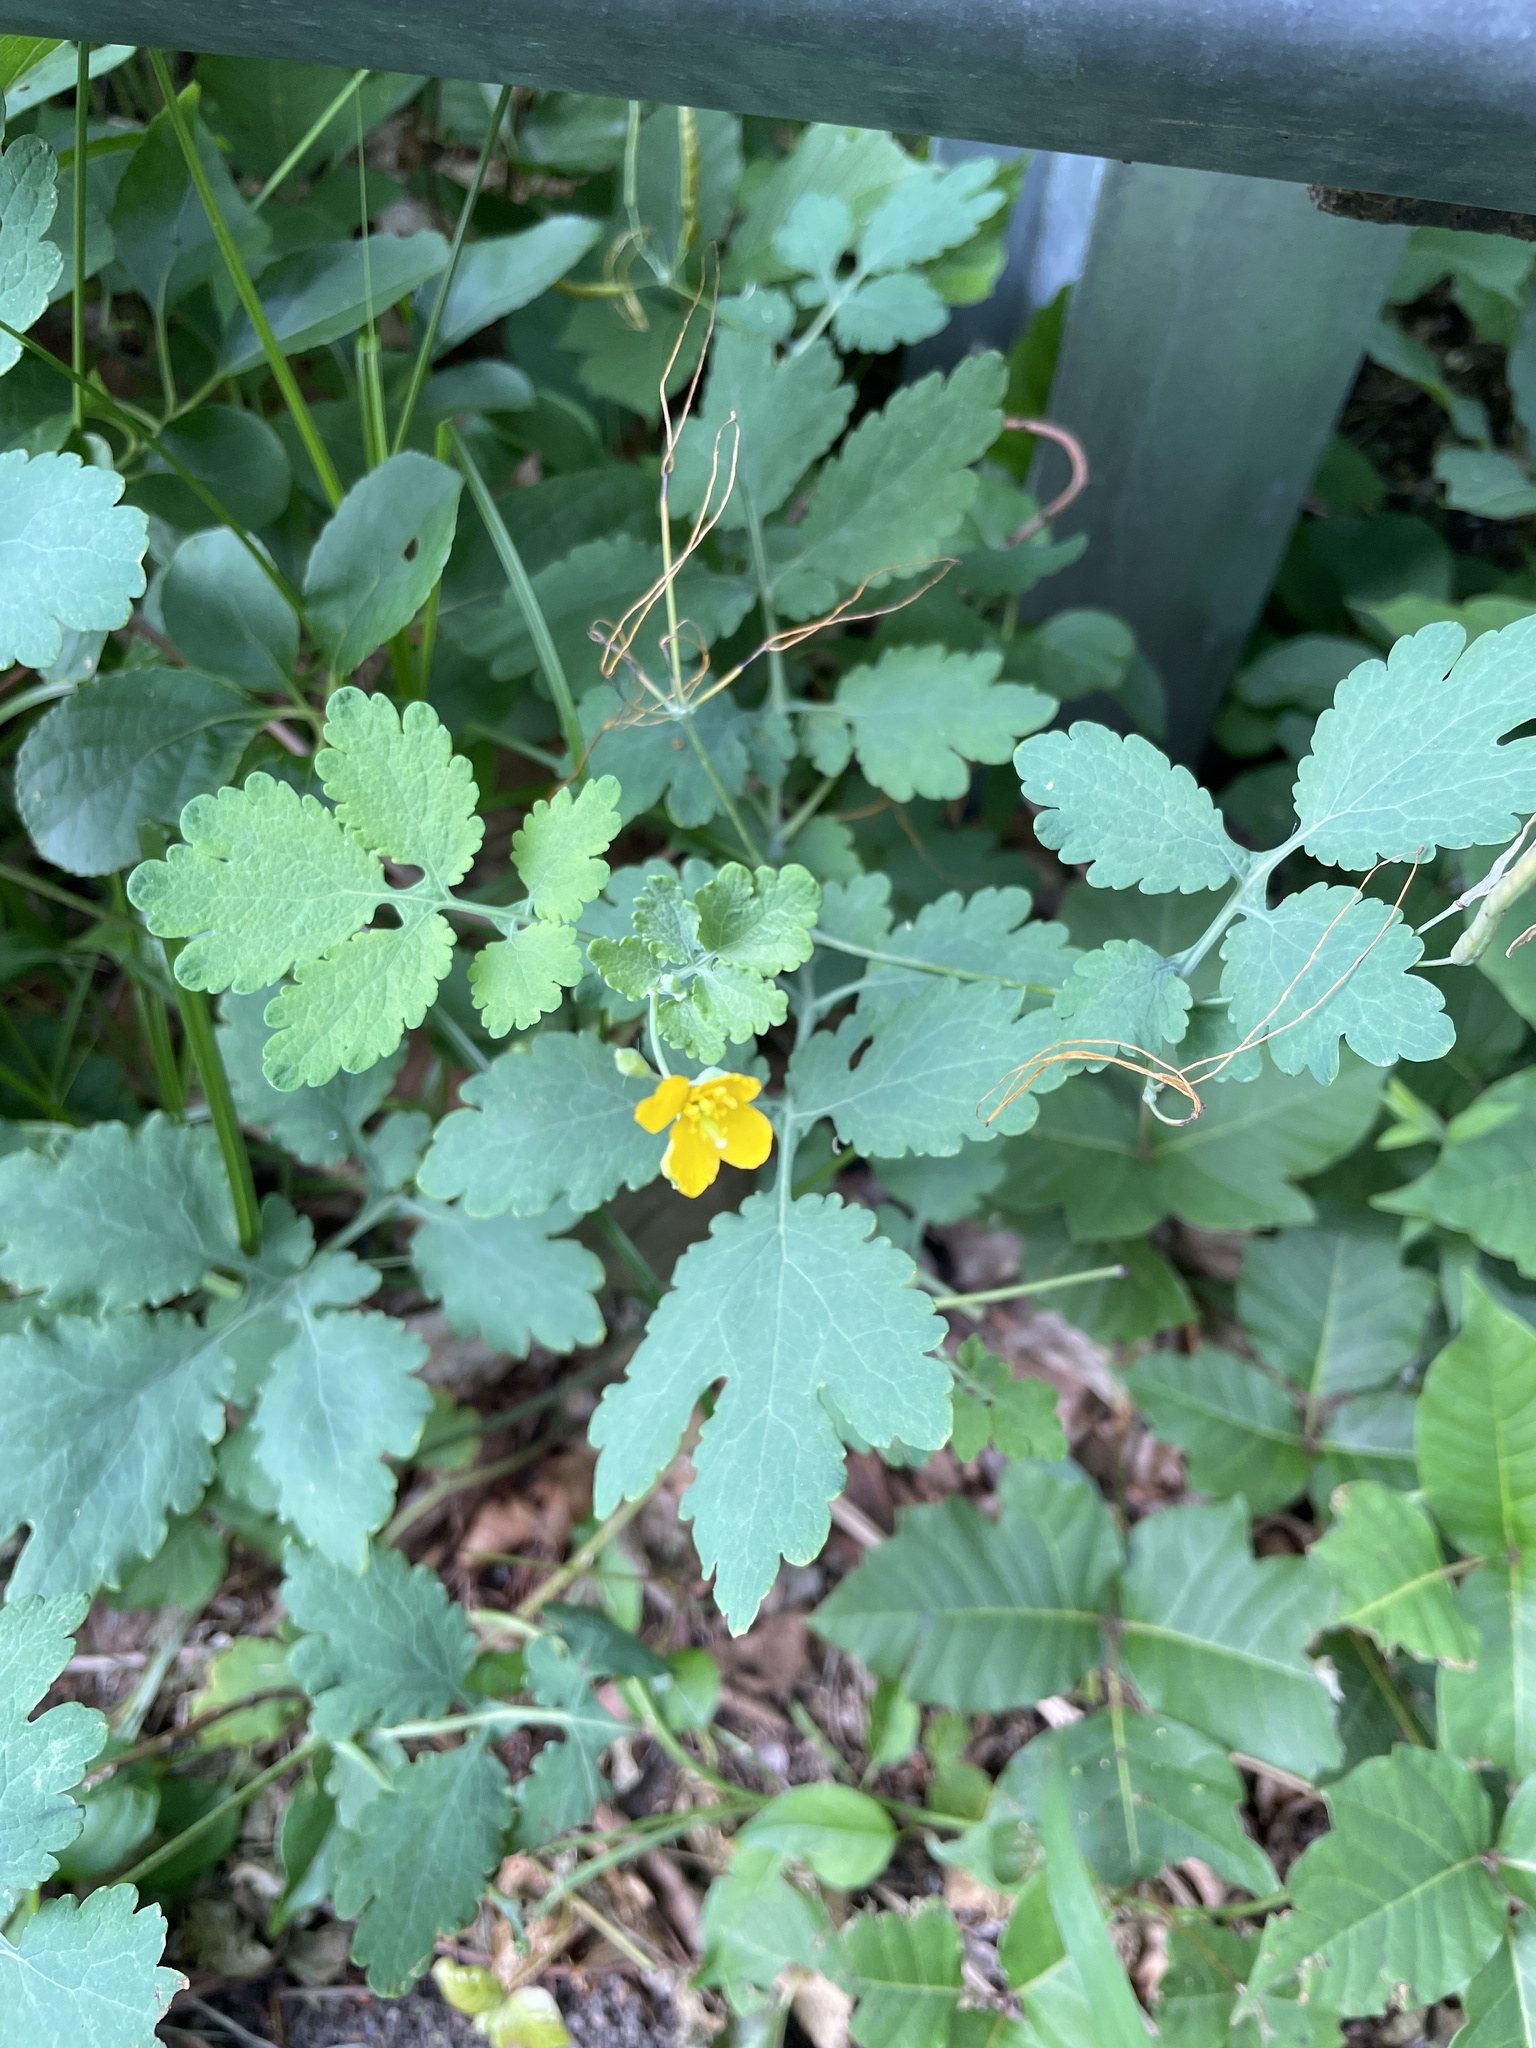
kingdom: Plantae
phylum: Tracheophyta
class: Magnoliopsida
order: Ranunculales
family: Papaveraceae
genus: Chelidonium
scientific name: Chelidonium majus
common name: Greater celandine
